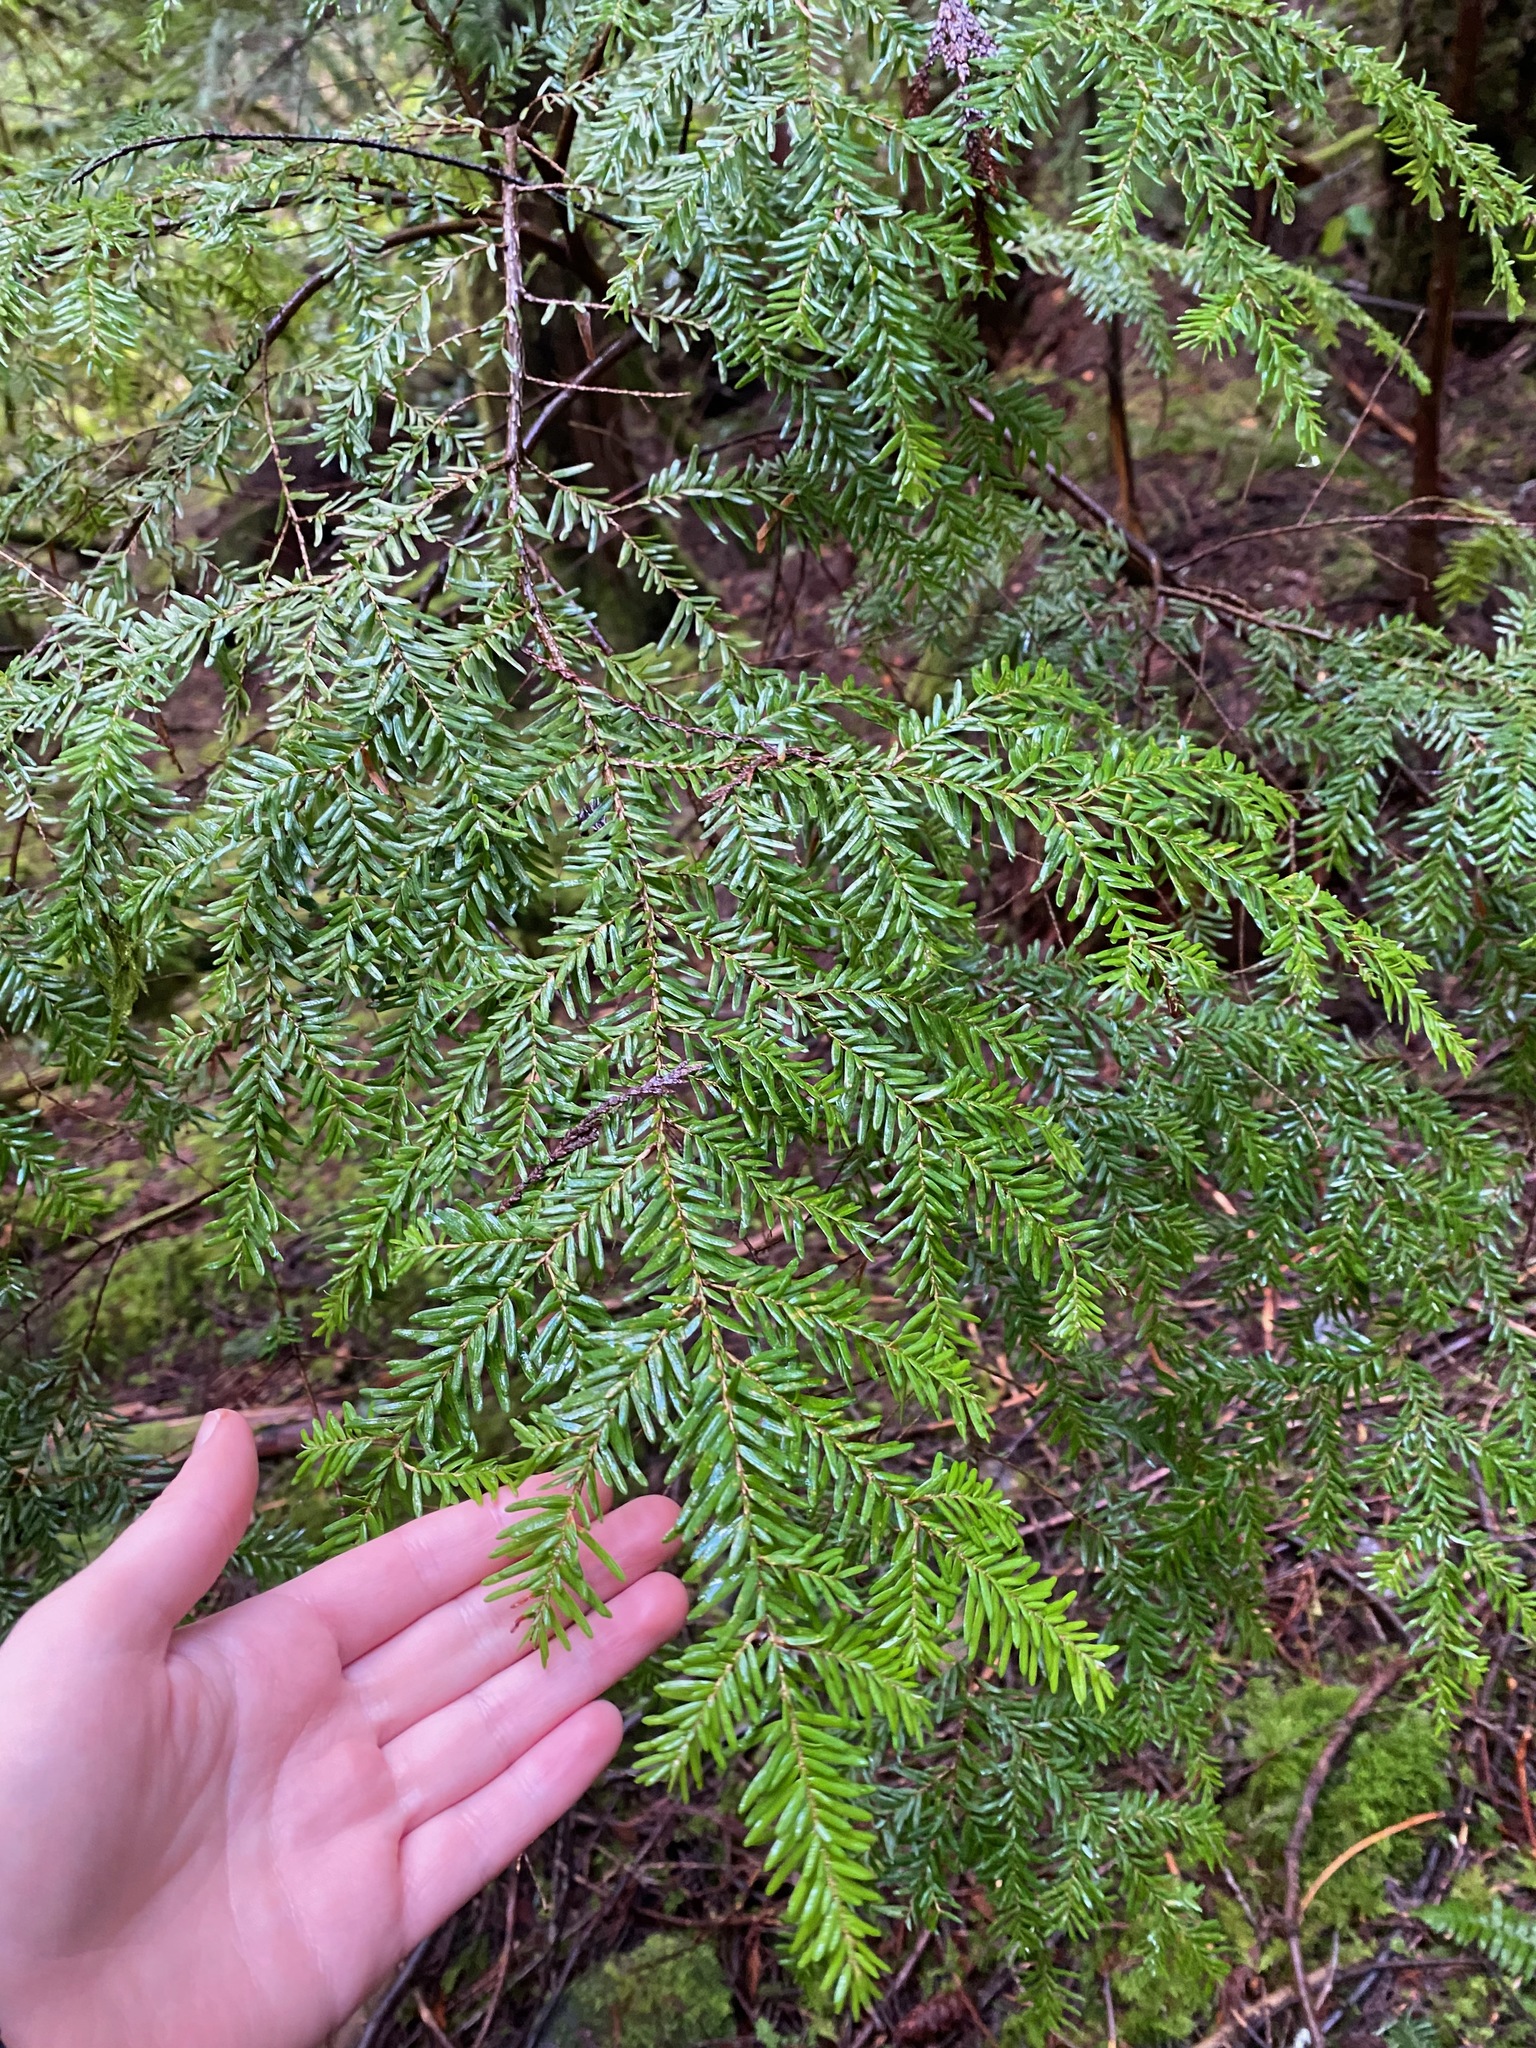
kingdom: Plantae
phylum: Tracheophyta
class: Pinopsida
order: Pinales
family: Pinaceae
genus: Tsuga
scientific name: Tsuga heterophylla
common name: Western hemlock
